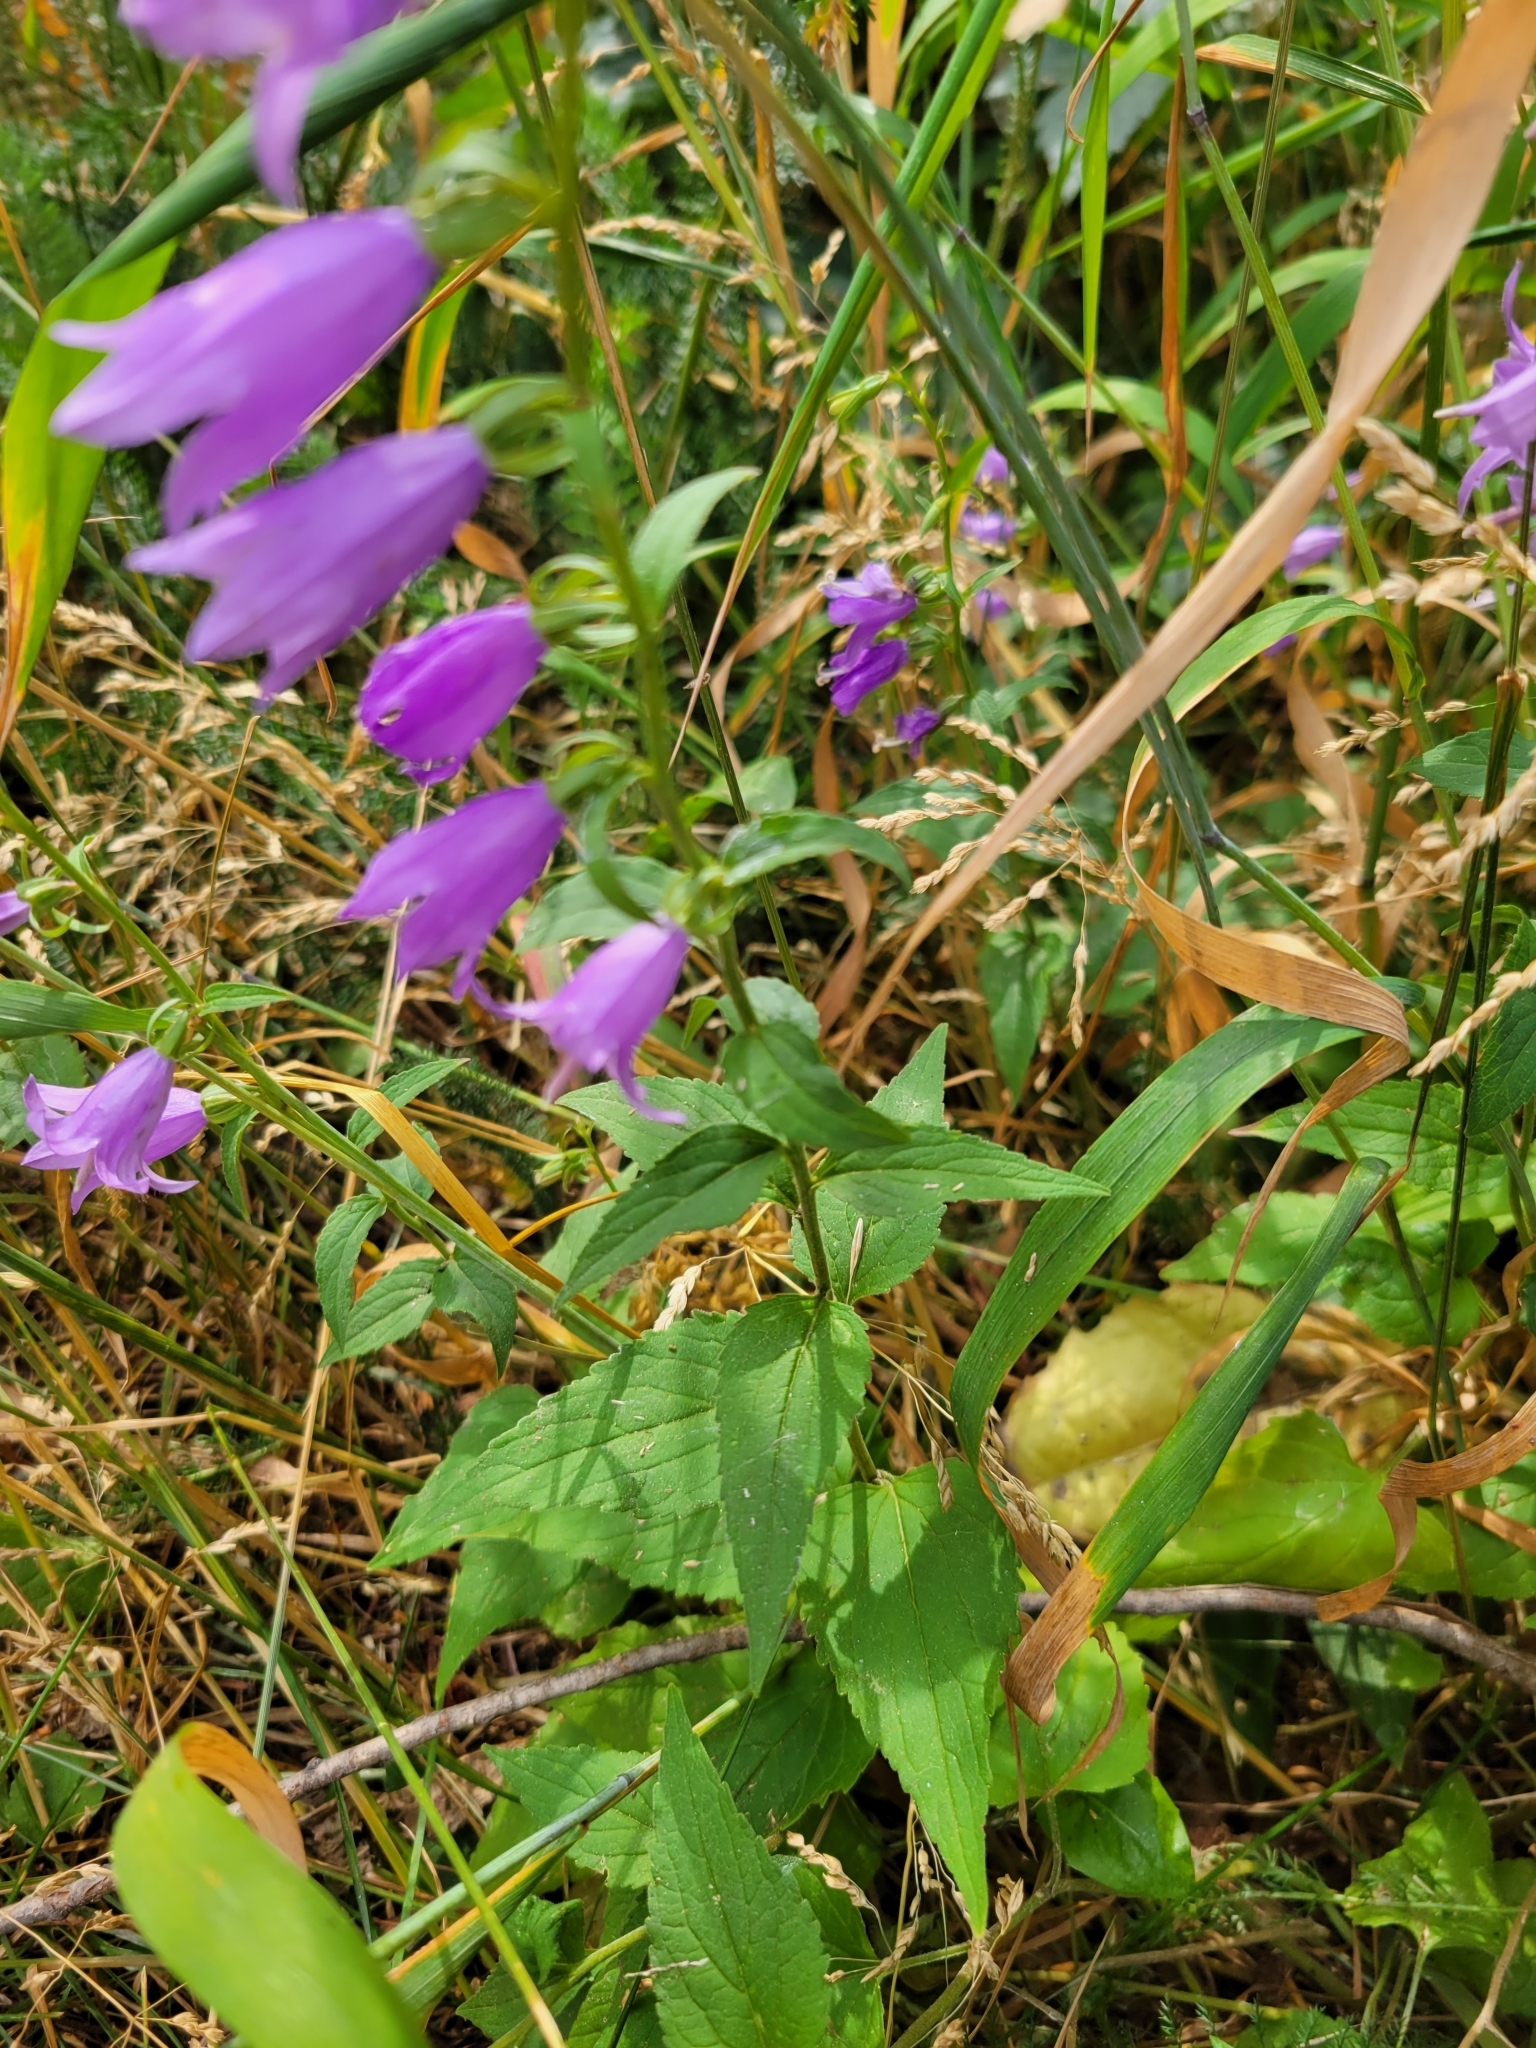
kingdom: Plantae
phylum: Tracheophyta
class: Magnoliopsida
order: Asterales
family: Campanulaceae
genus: Campanula
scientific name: Campanula rapunculoides
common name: Creeping bellflower
